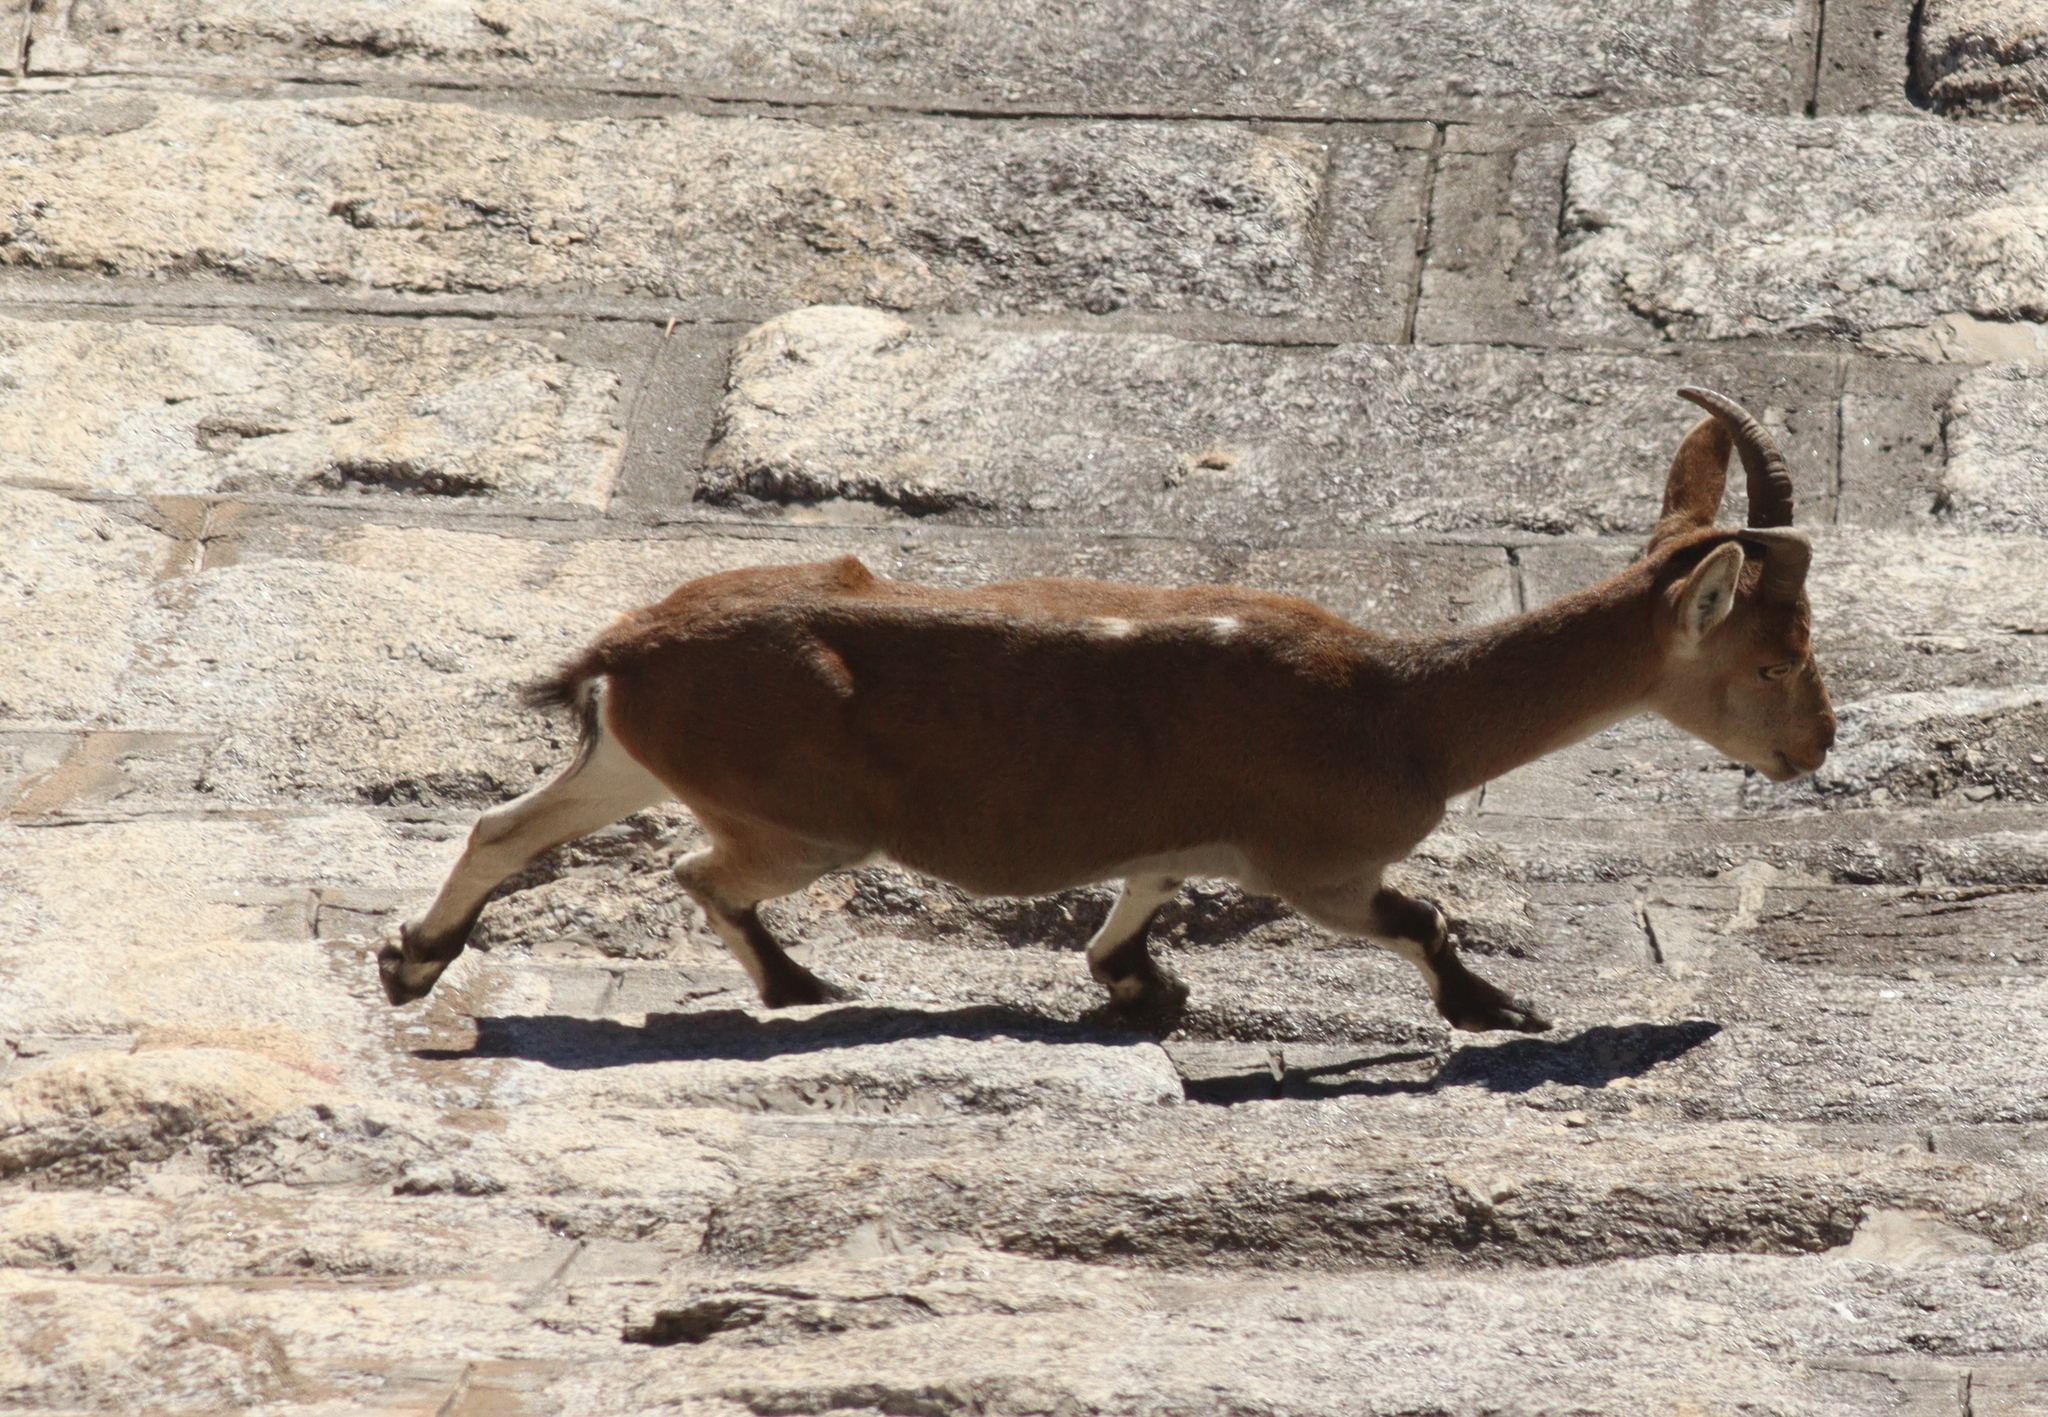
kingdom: Animalia
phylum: Chordata
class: Mammalia
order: Artiodactyla
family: Bovidae
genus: Capra
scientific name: Capra pyrenaica
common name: Spanish ibex
